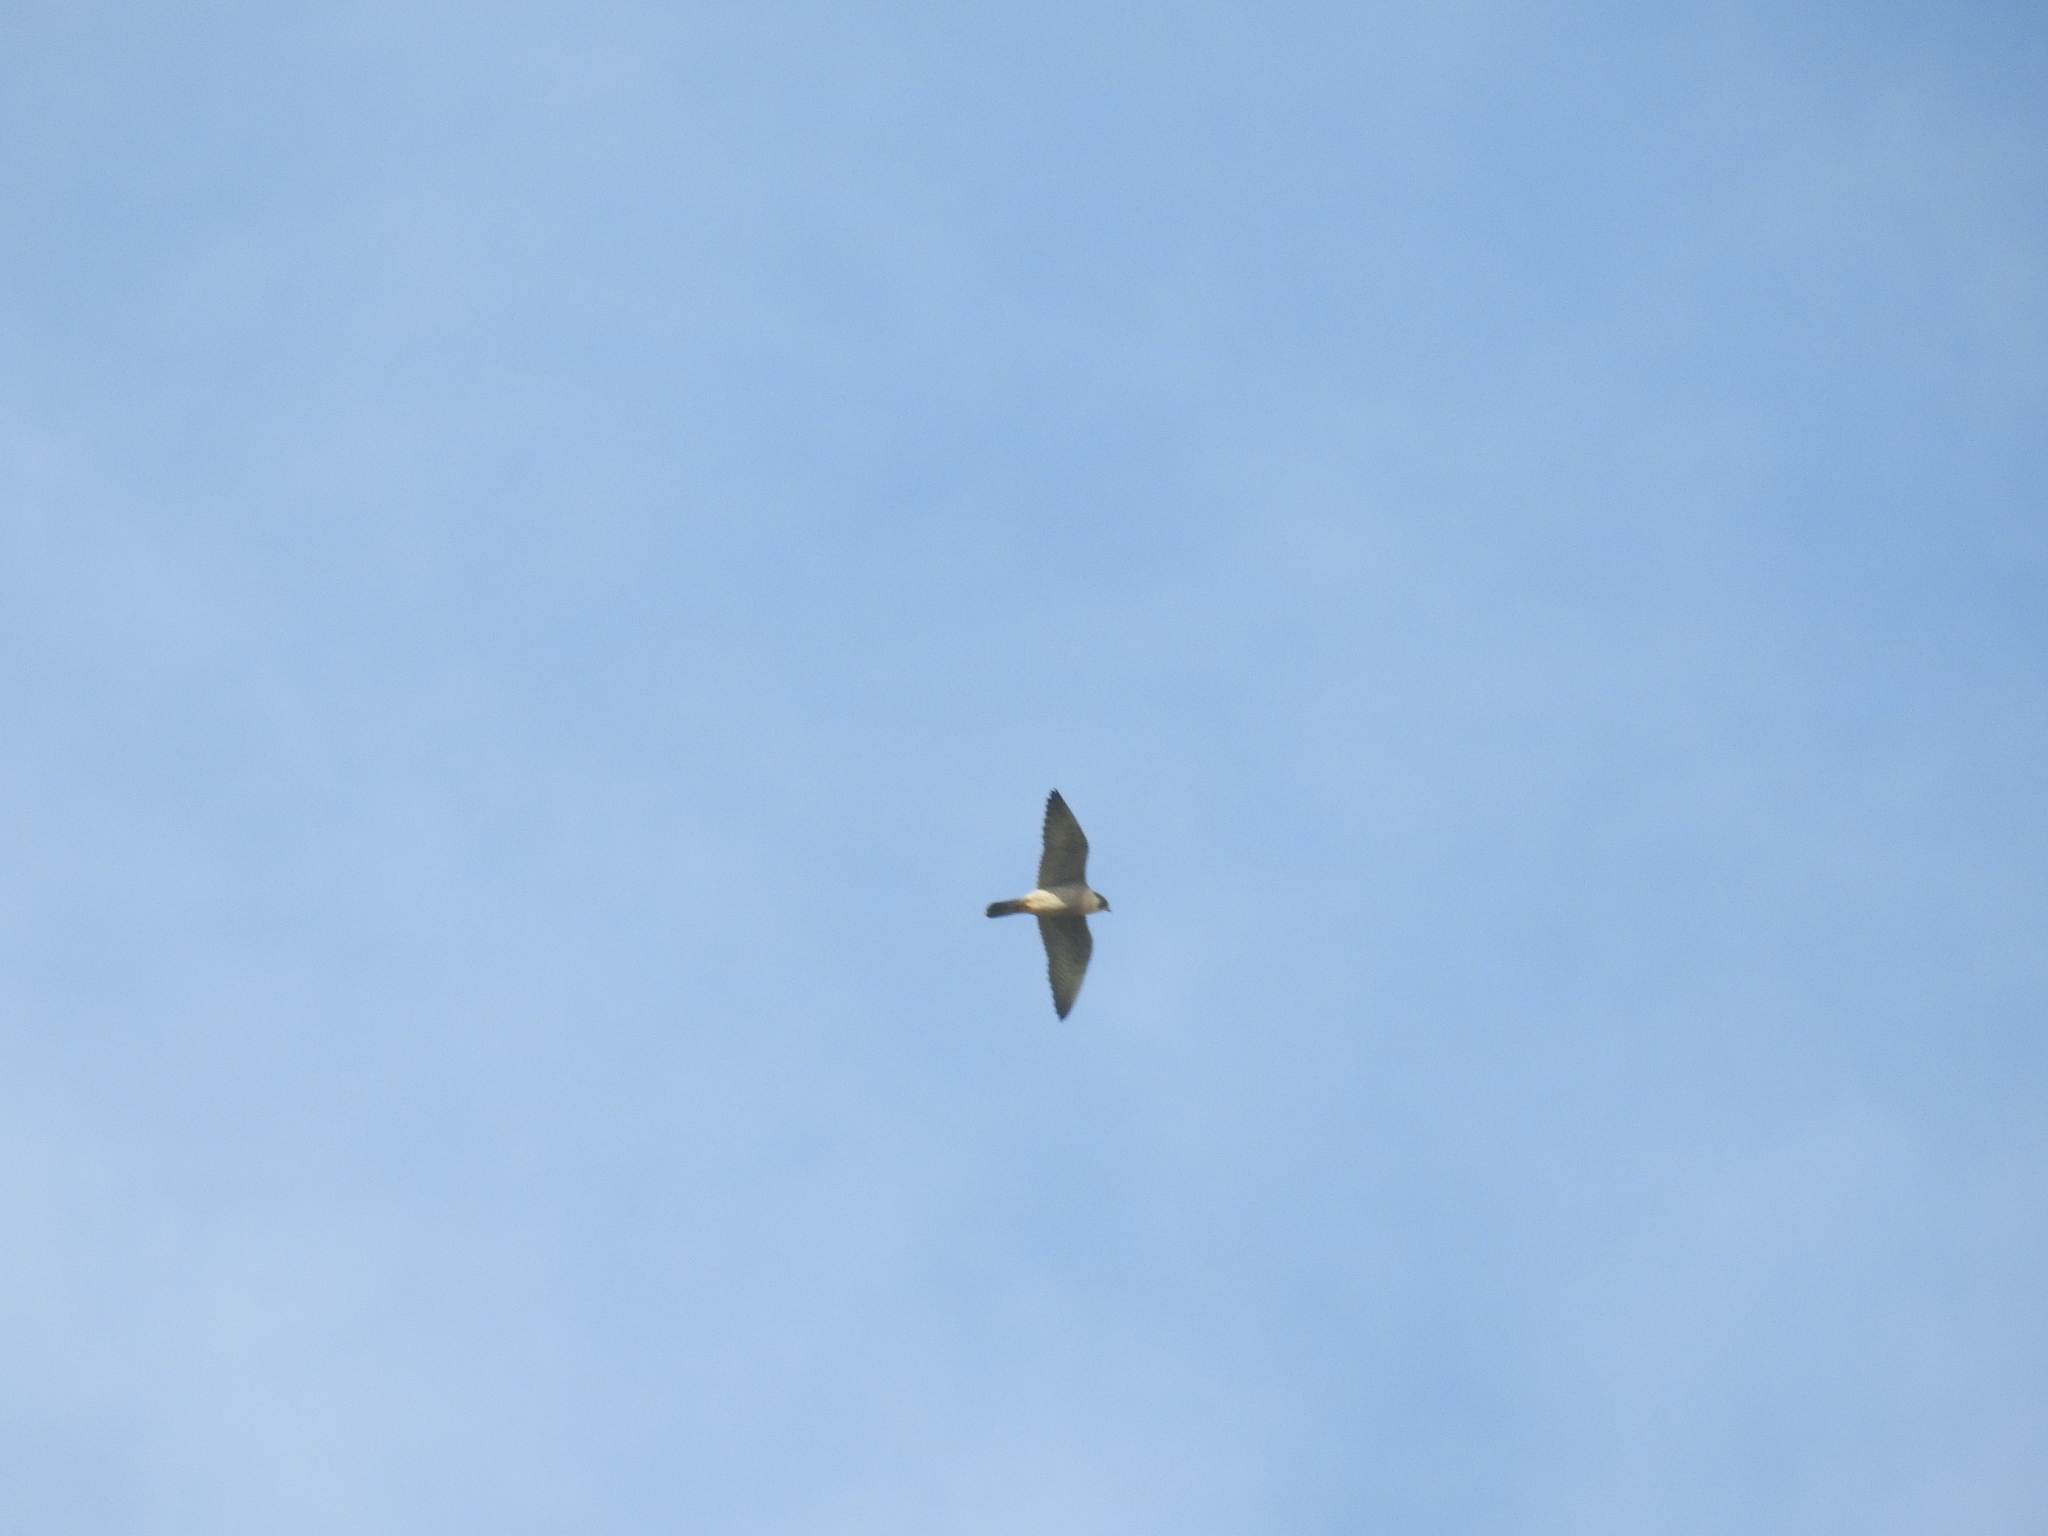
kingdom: Animalia
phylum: Chordata
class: Aves
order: Falconiformes
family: Falconidae
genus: Falco
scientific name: Falco peregrinus
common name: Peregrine falcon
